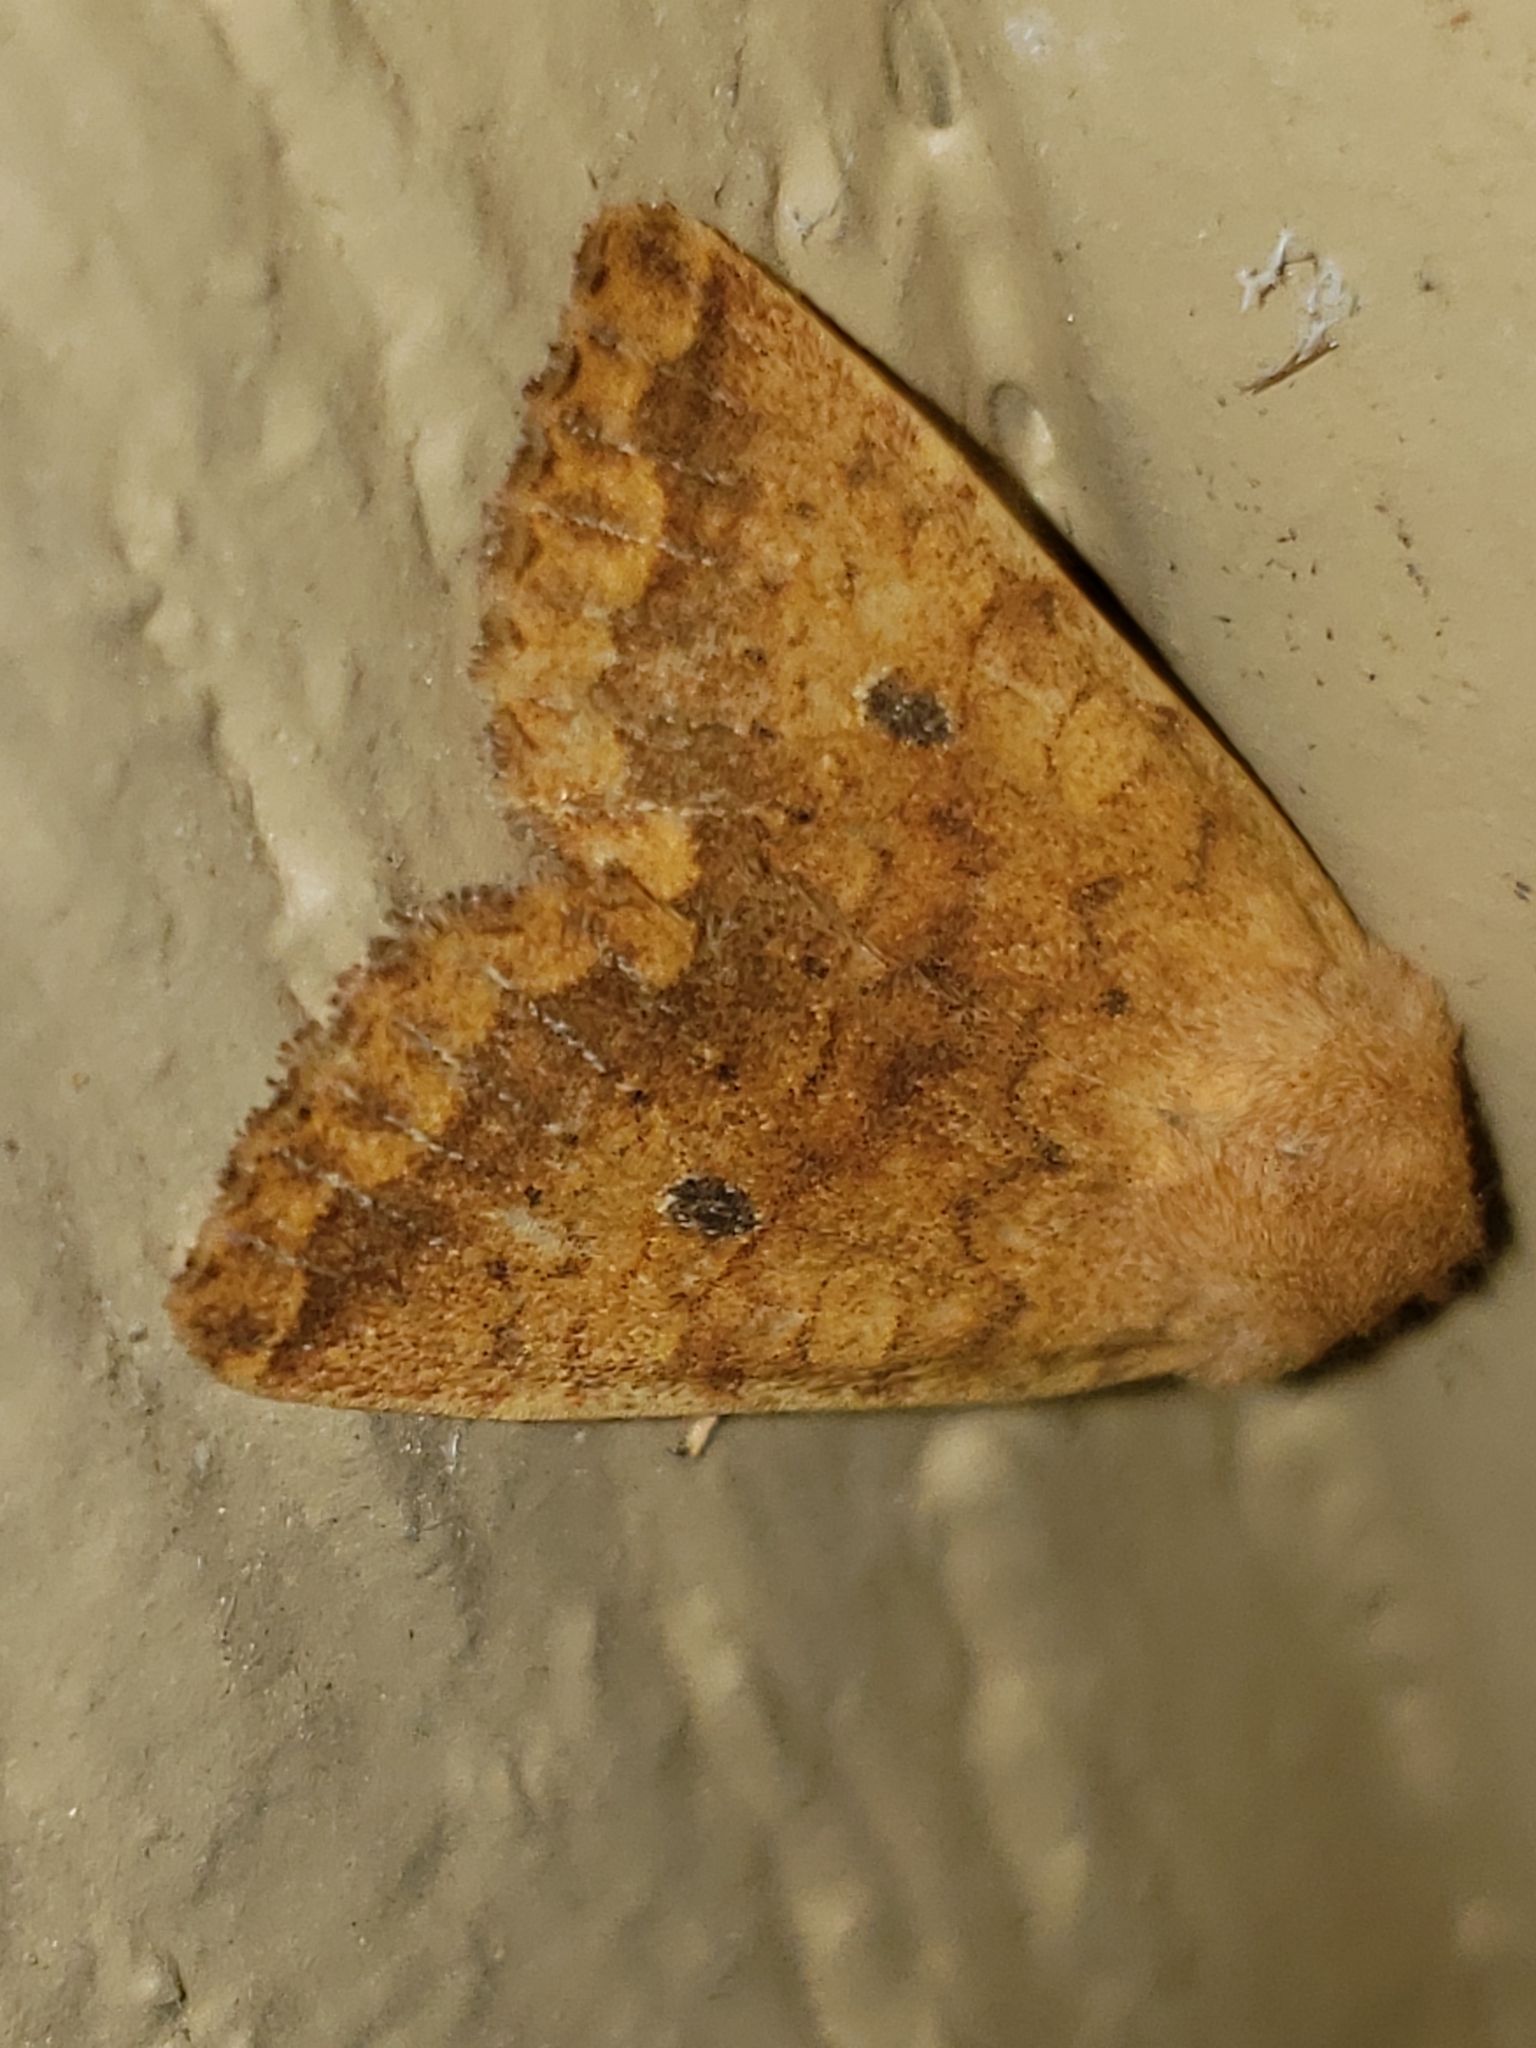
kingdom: Animalia
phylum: Arthropoda
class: Insecta
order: Lepidoptera
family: Noctuidae
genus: Agrochola
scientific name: Agrochola bicolorago
